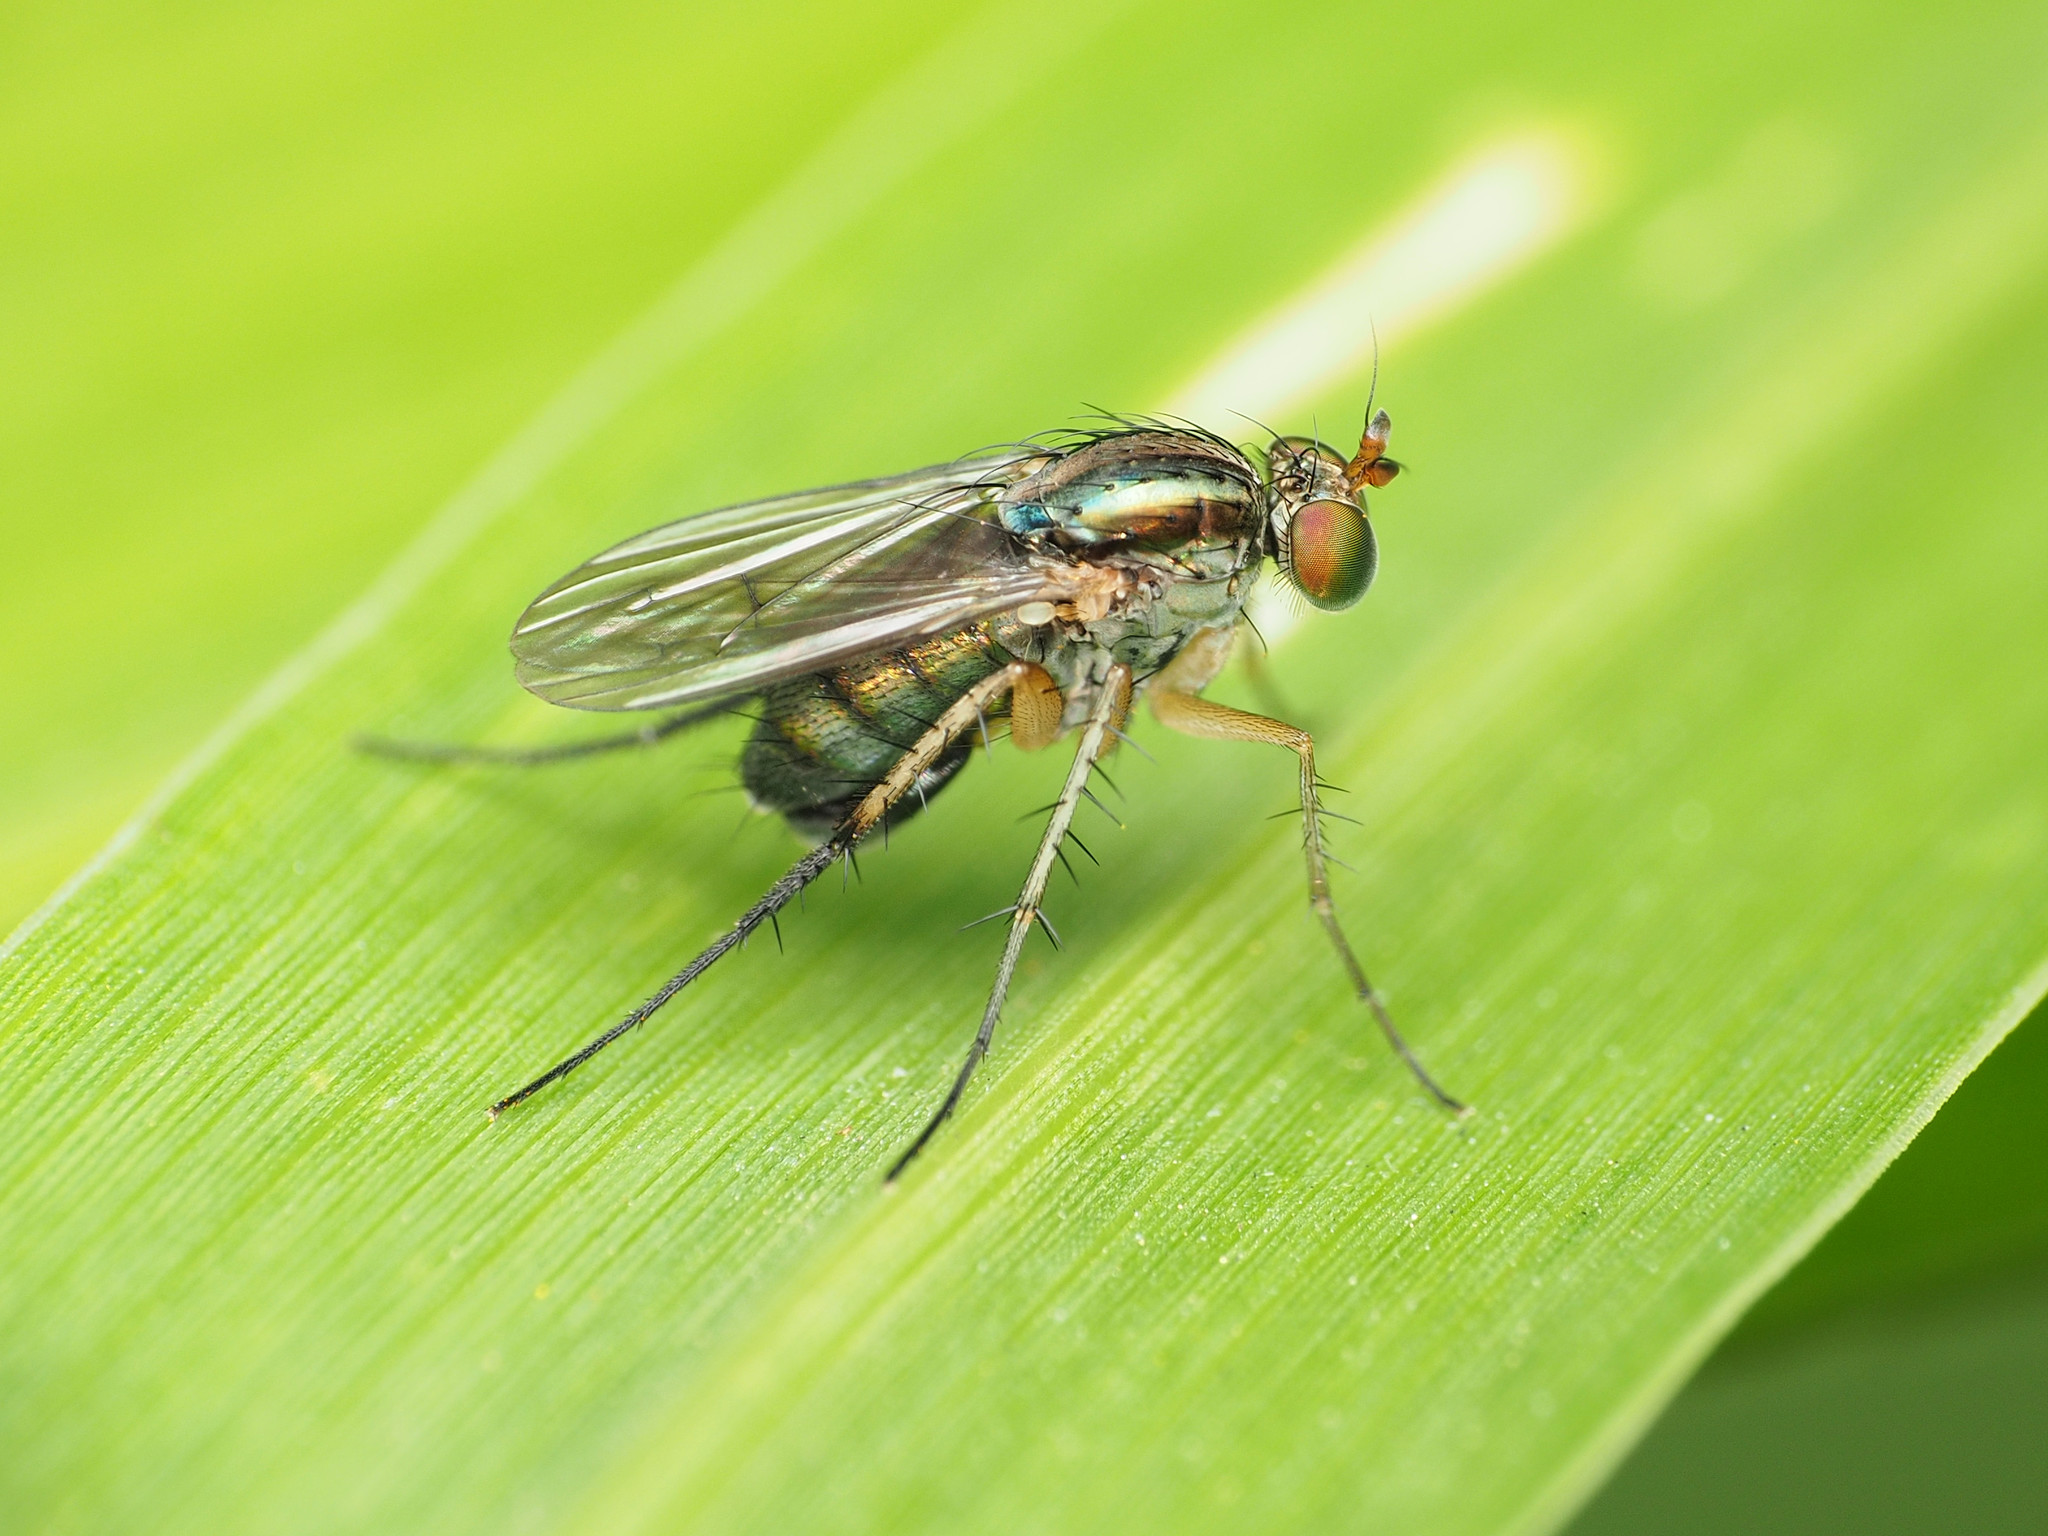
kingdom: Animalia
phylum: Arthropoda
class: Insecta
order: Diptera
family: Dolichopodidae
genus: Dolichopus
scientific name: Dolichopus reflectus
